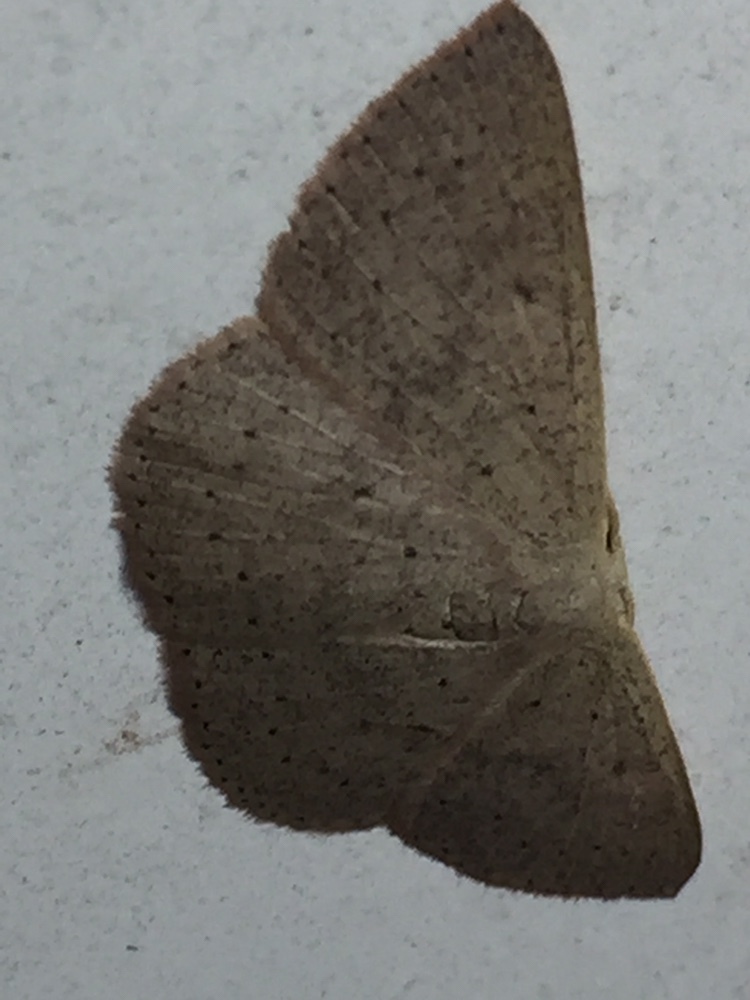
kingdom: Animalia
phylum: Arthropoda
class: Insecta
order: Lepidoptera
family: Geometridae
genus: Cyclophora
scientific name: Cyclophora obstataria
